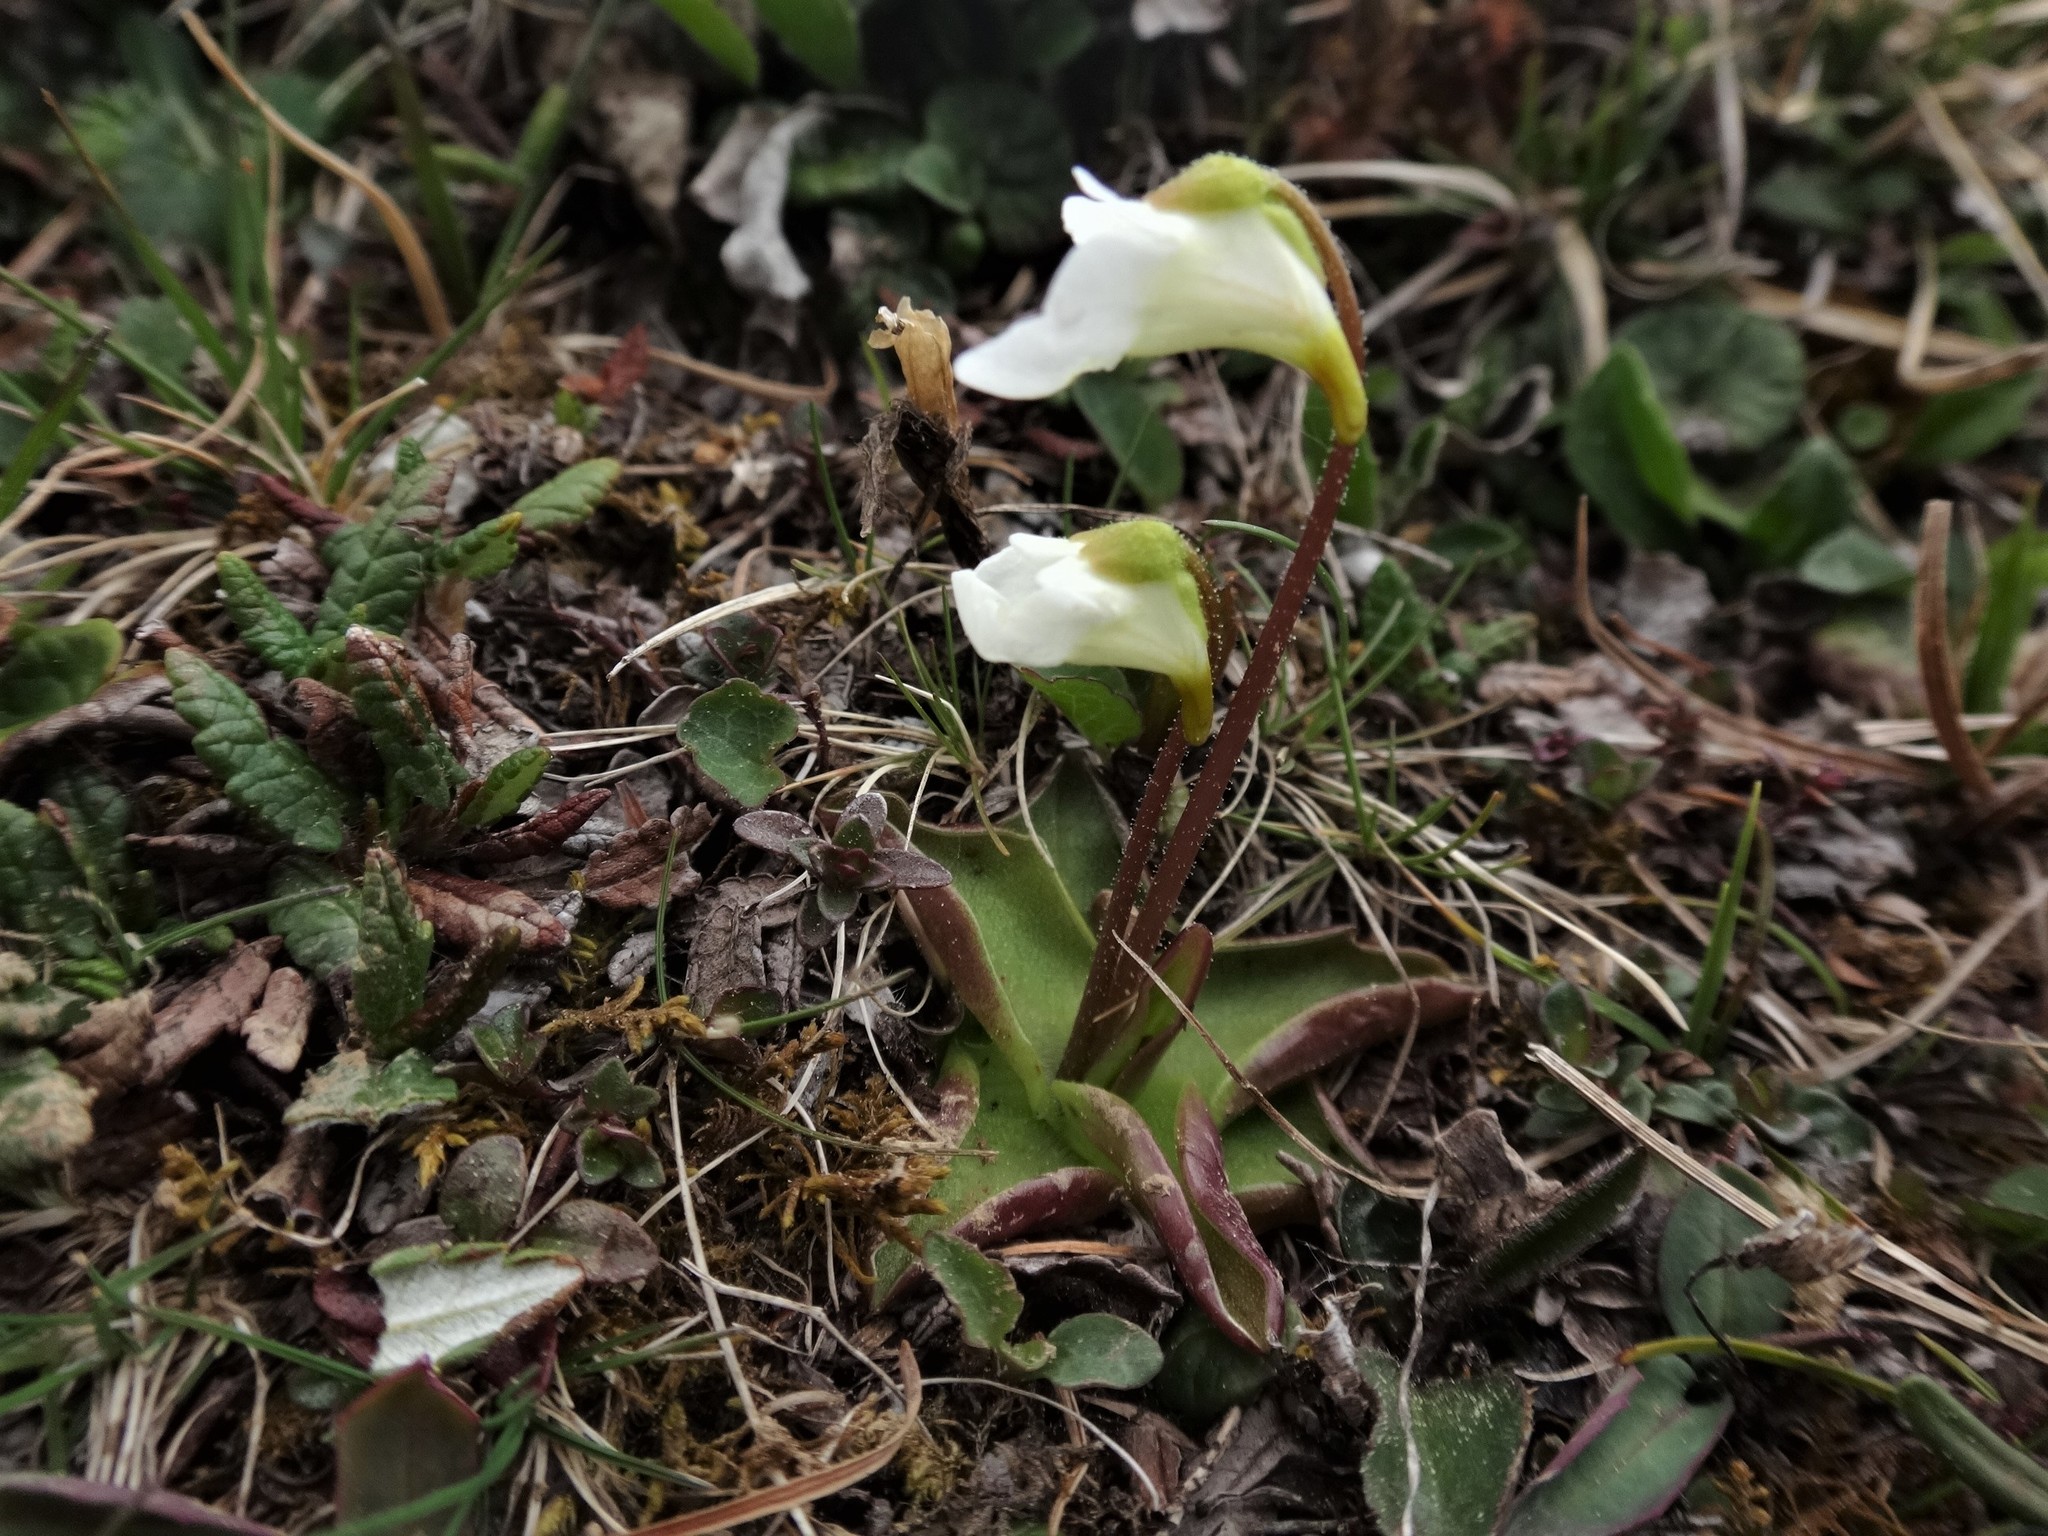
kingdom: Plantae
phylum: Tracheophyta
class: Magnoliopsida
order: Lamiales
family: Lentibulariaceae
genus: Pinguicula
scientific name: Pinguicula alpina
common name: Alpine butterwort
